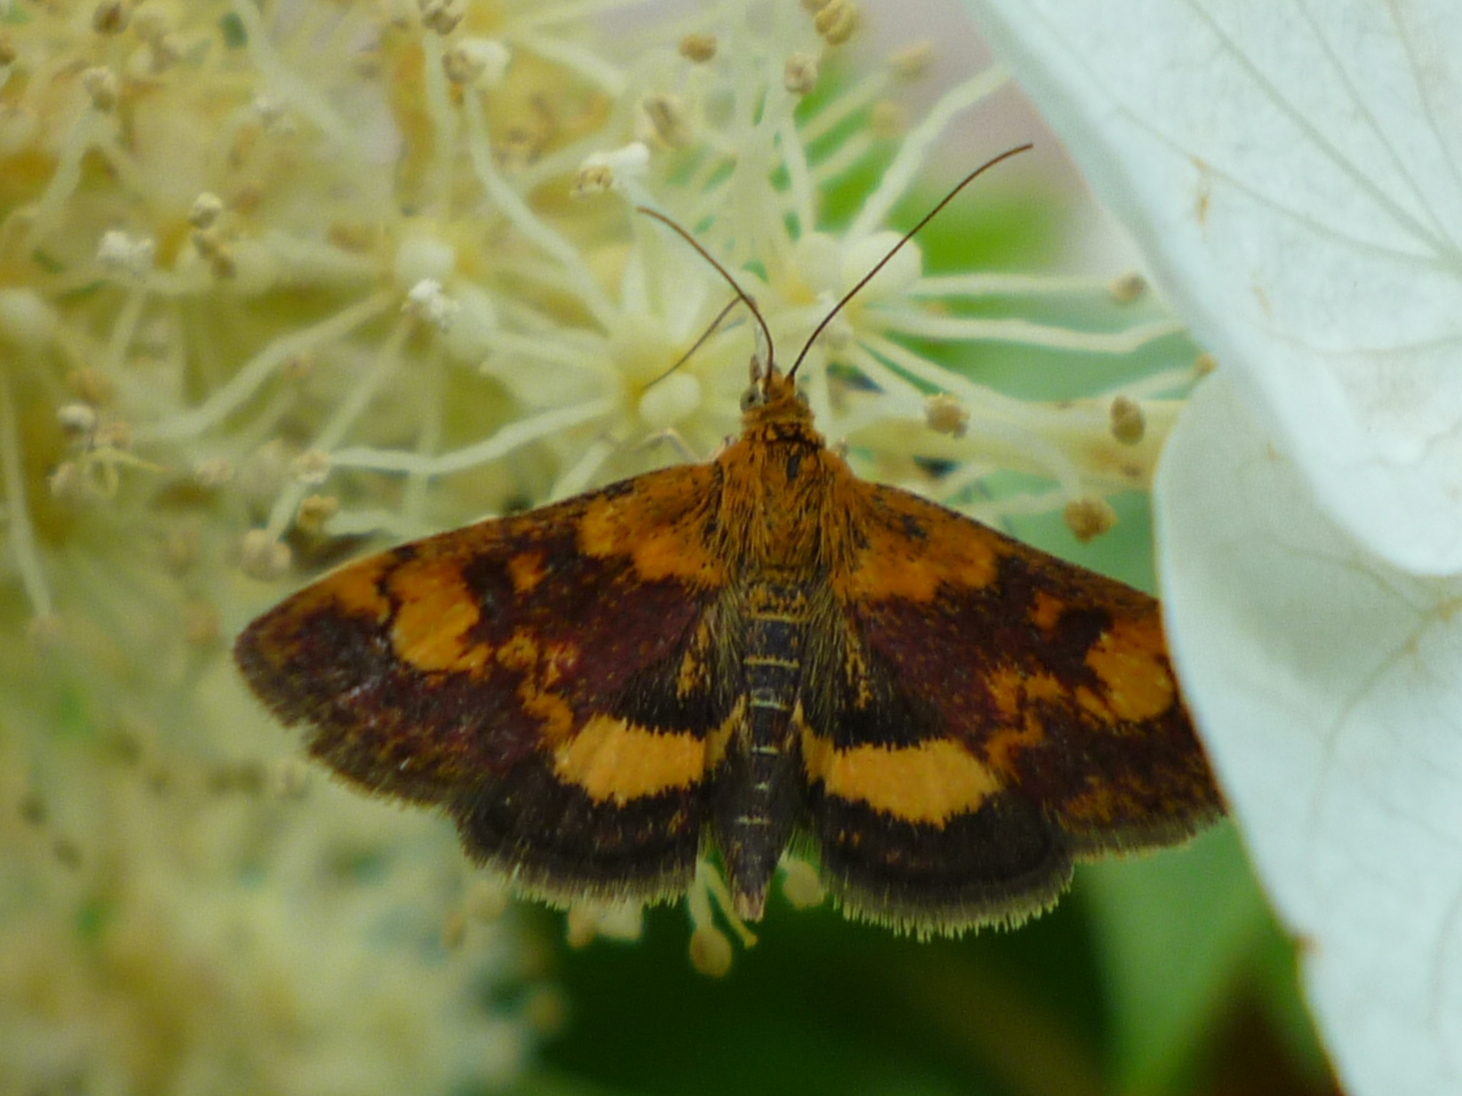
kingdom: Animalia
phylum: Arthropoda
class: Insecta
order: Lepidoptera
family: Crambidae
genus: Pyrausta
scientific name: Pyrausta orphisalis
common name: Orange mint moth
